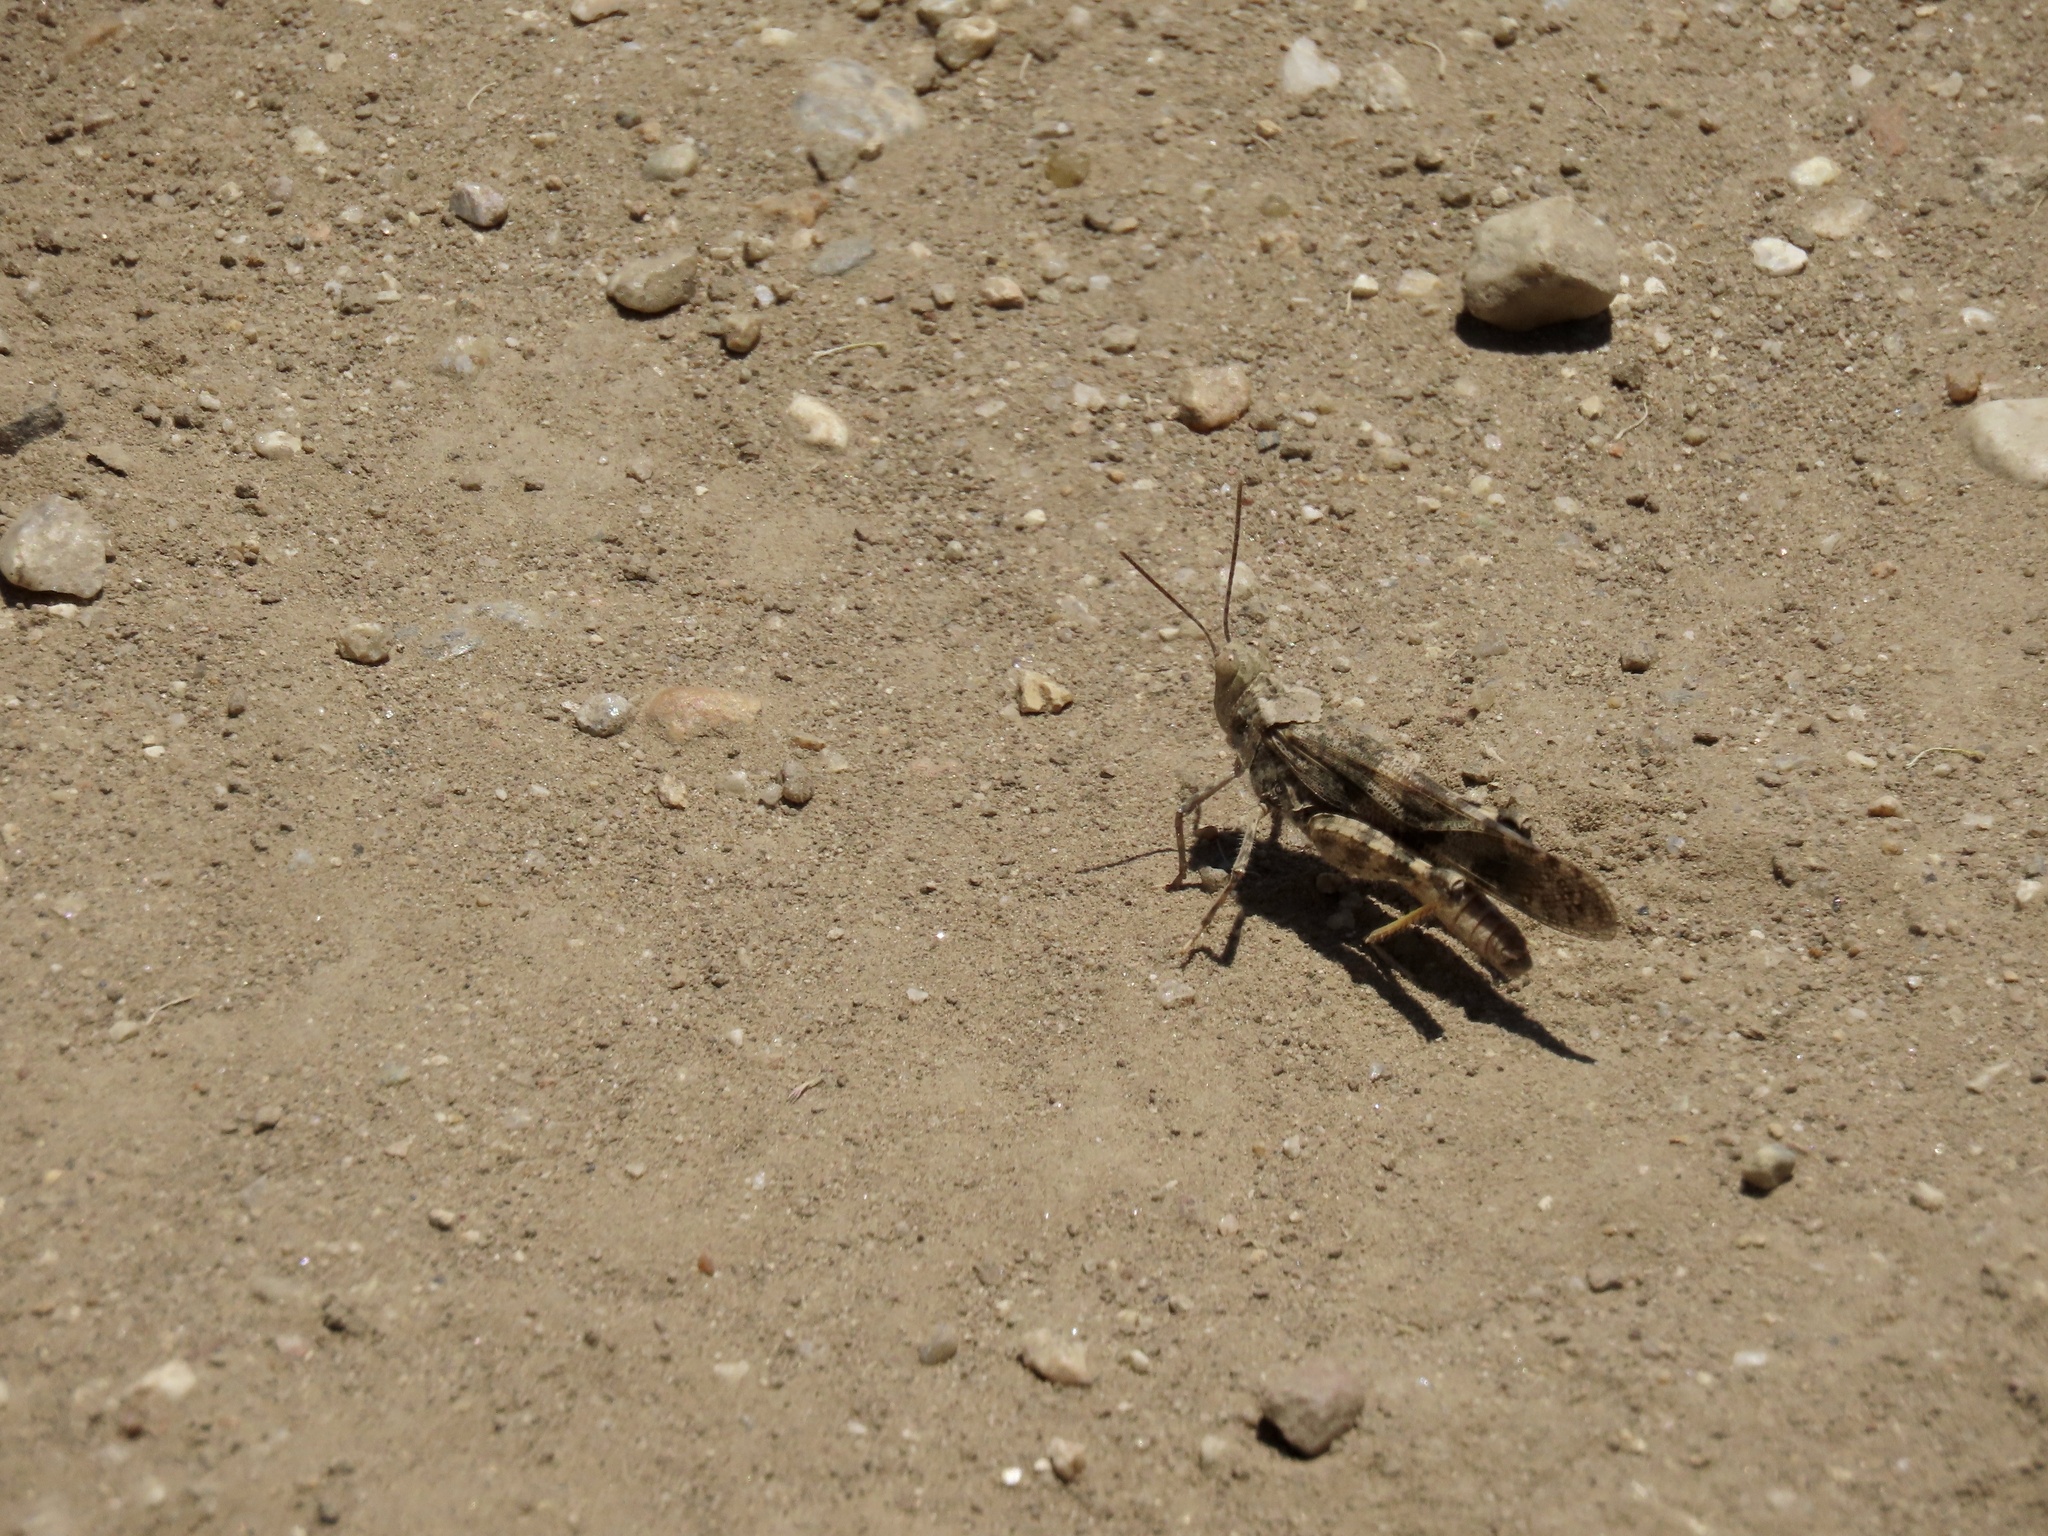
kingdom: Animalia
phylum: Arthropoda
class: Insecta
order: Orthoptera
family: Acrididae
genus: Trimerotropis
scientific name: Trimerotropis pallidipennis
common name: Pallid-winged grasshopper
